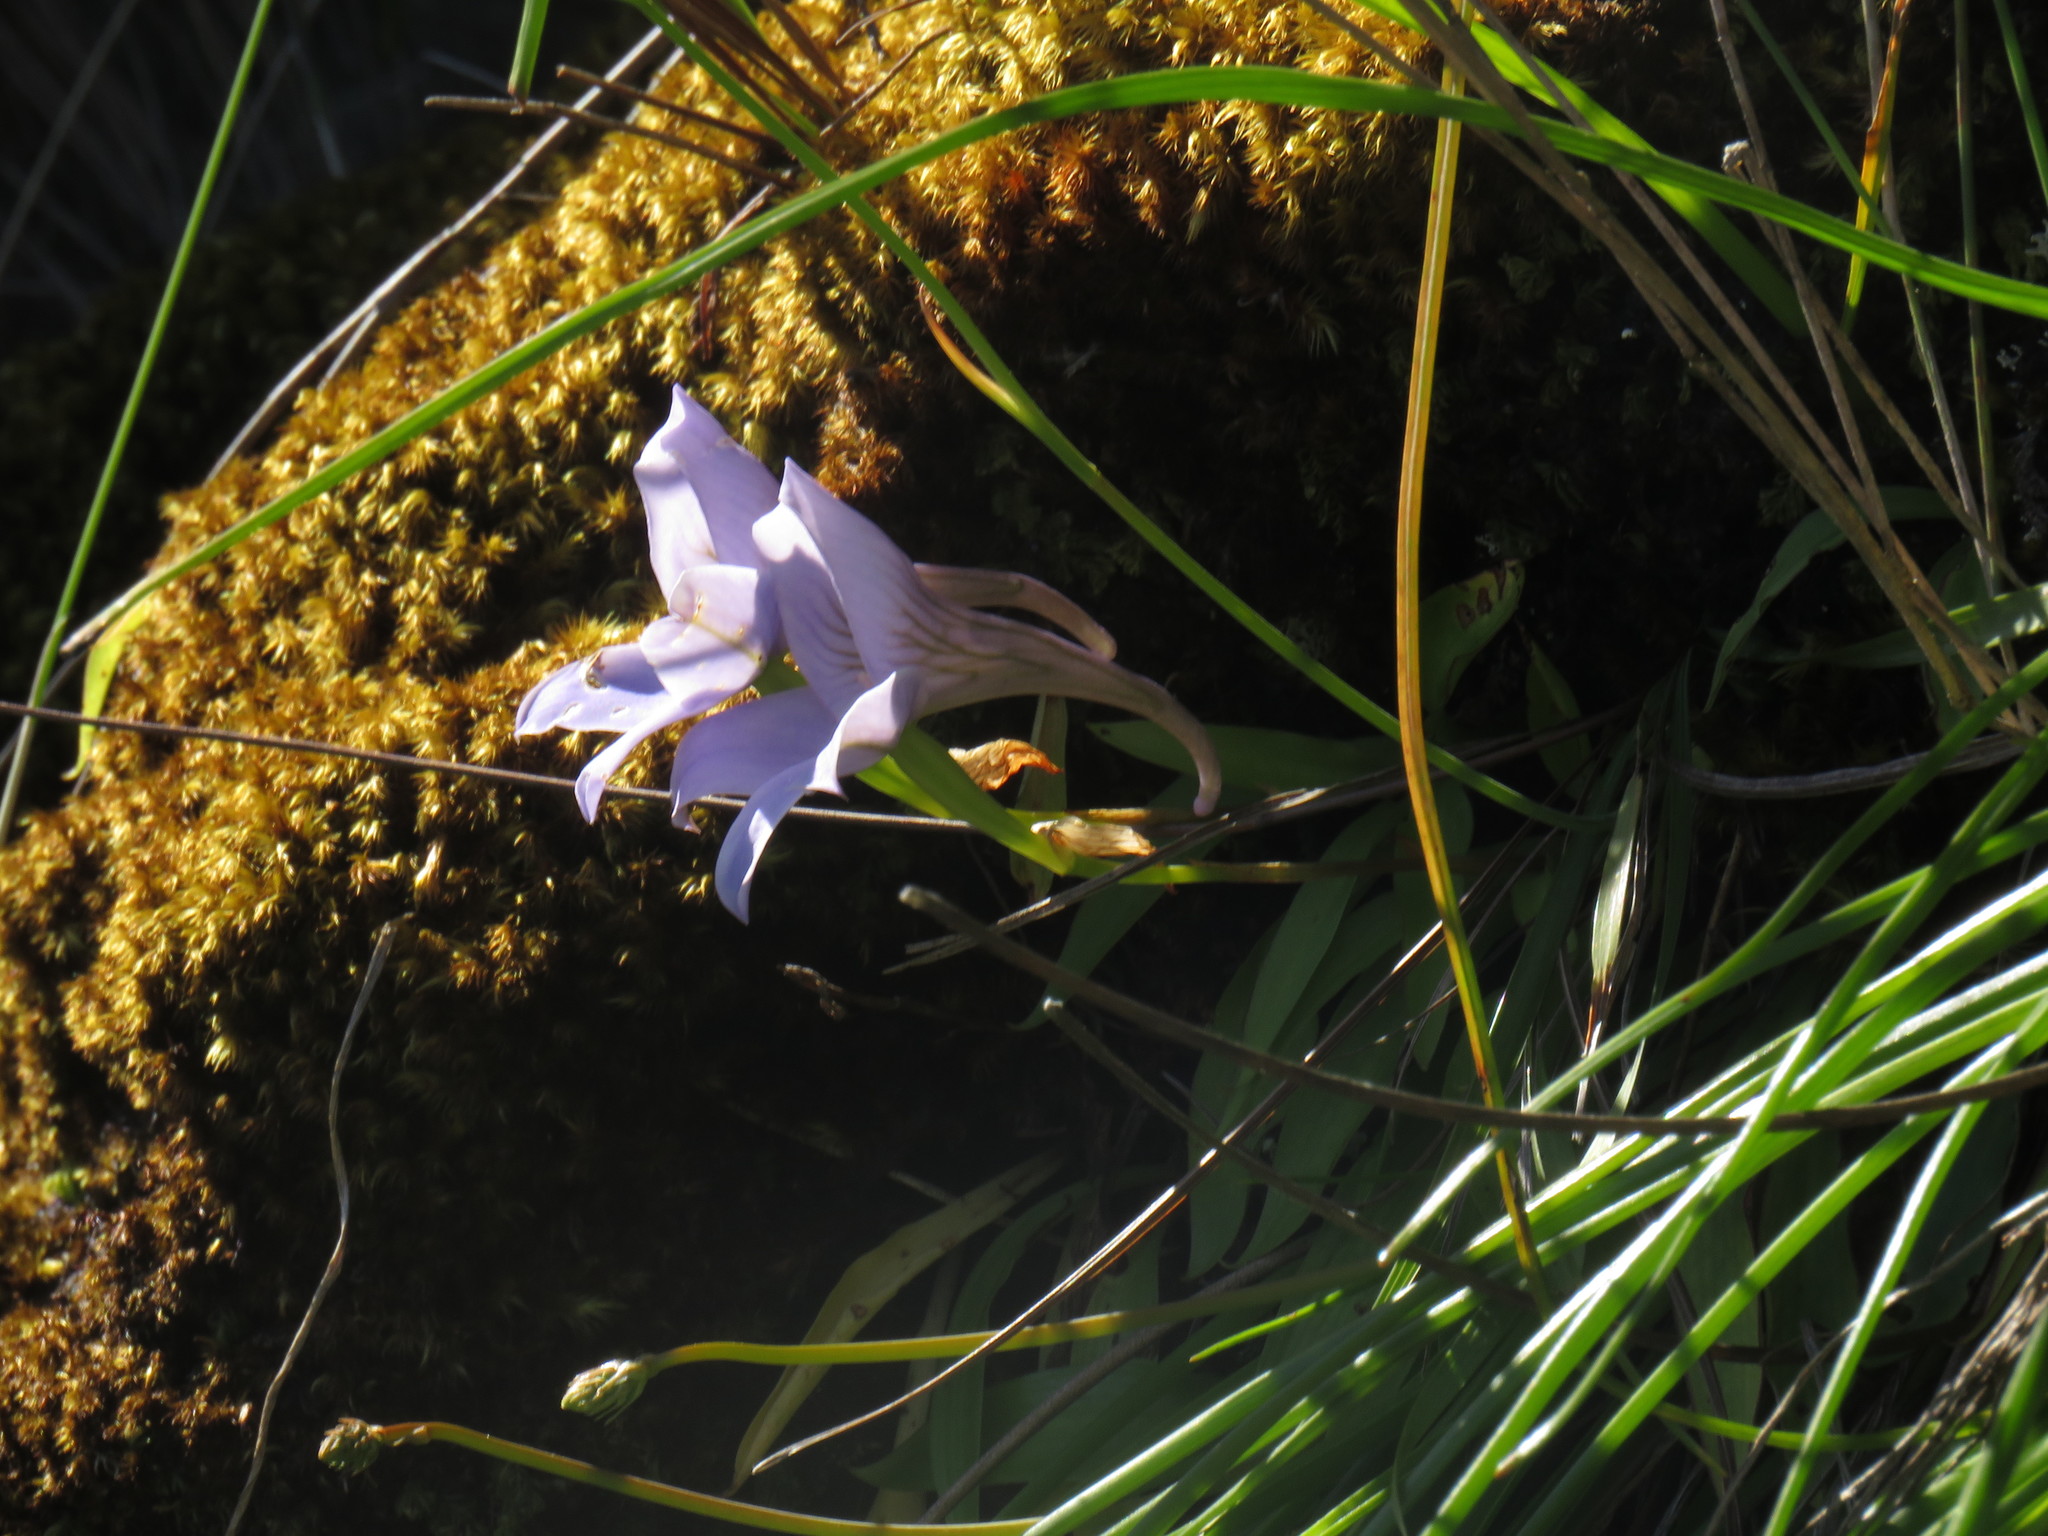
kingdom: Plantae
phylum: Tracheophyta
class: Liliopsida
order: Asparagales
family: Orchidaceae
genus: Disa
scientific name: Disa longicornu
